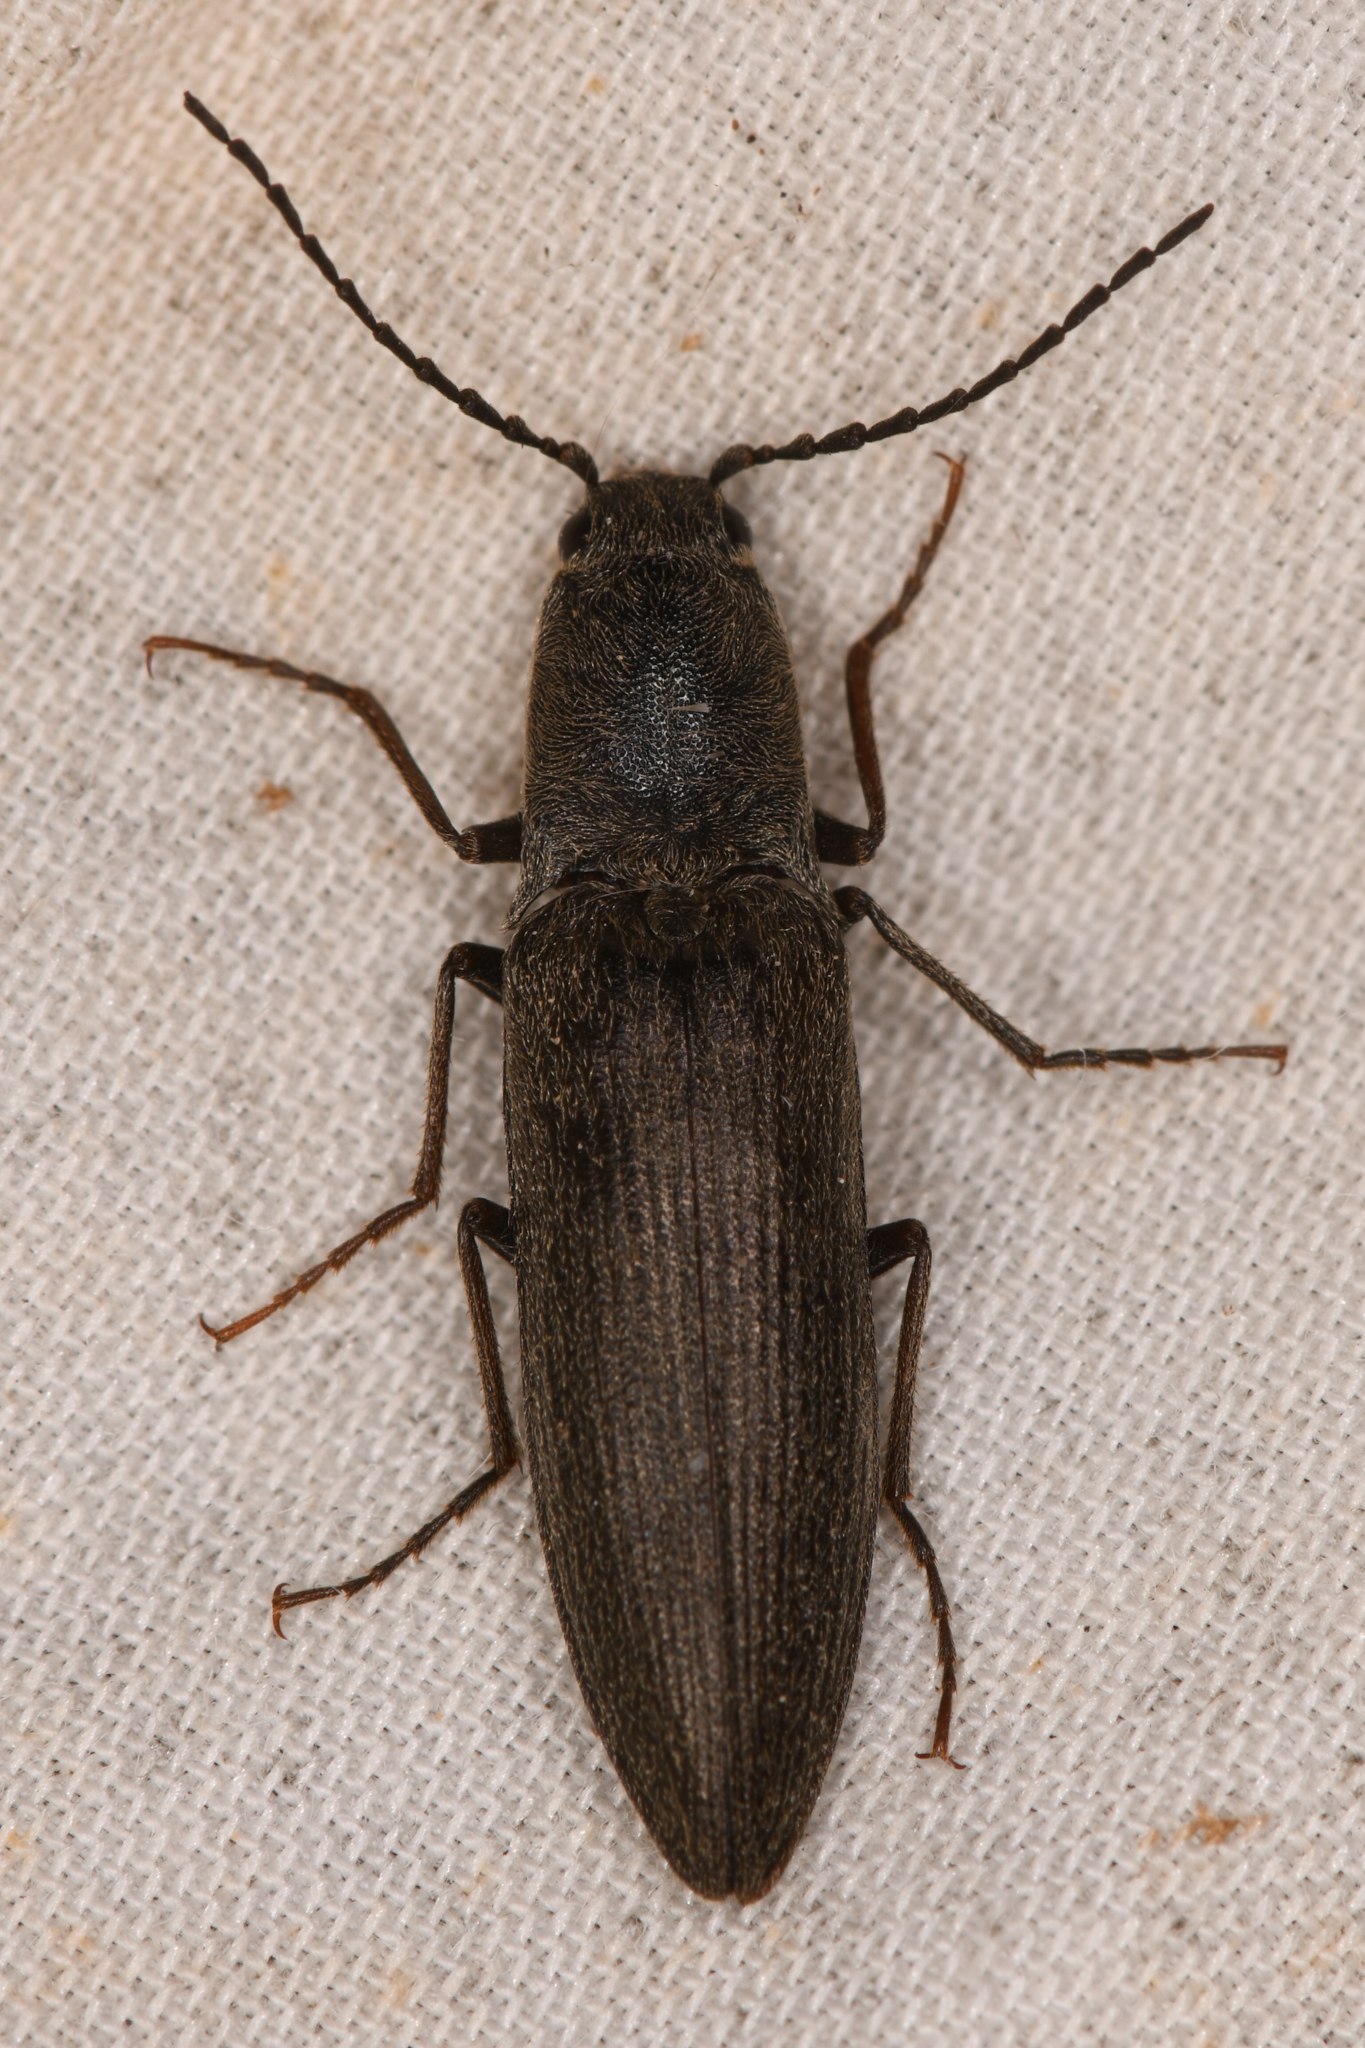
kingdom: Animalia
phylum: Arthropoda
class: Insecta
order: Coleoptera
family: Elateridae
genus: Proludius
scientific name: Proludius
